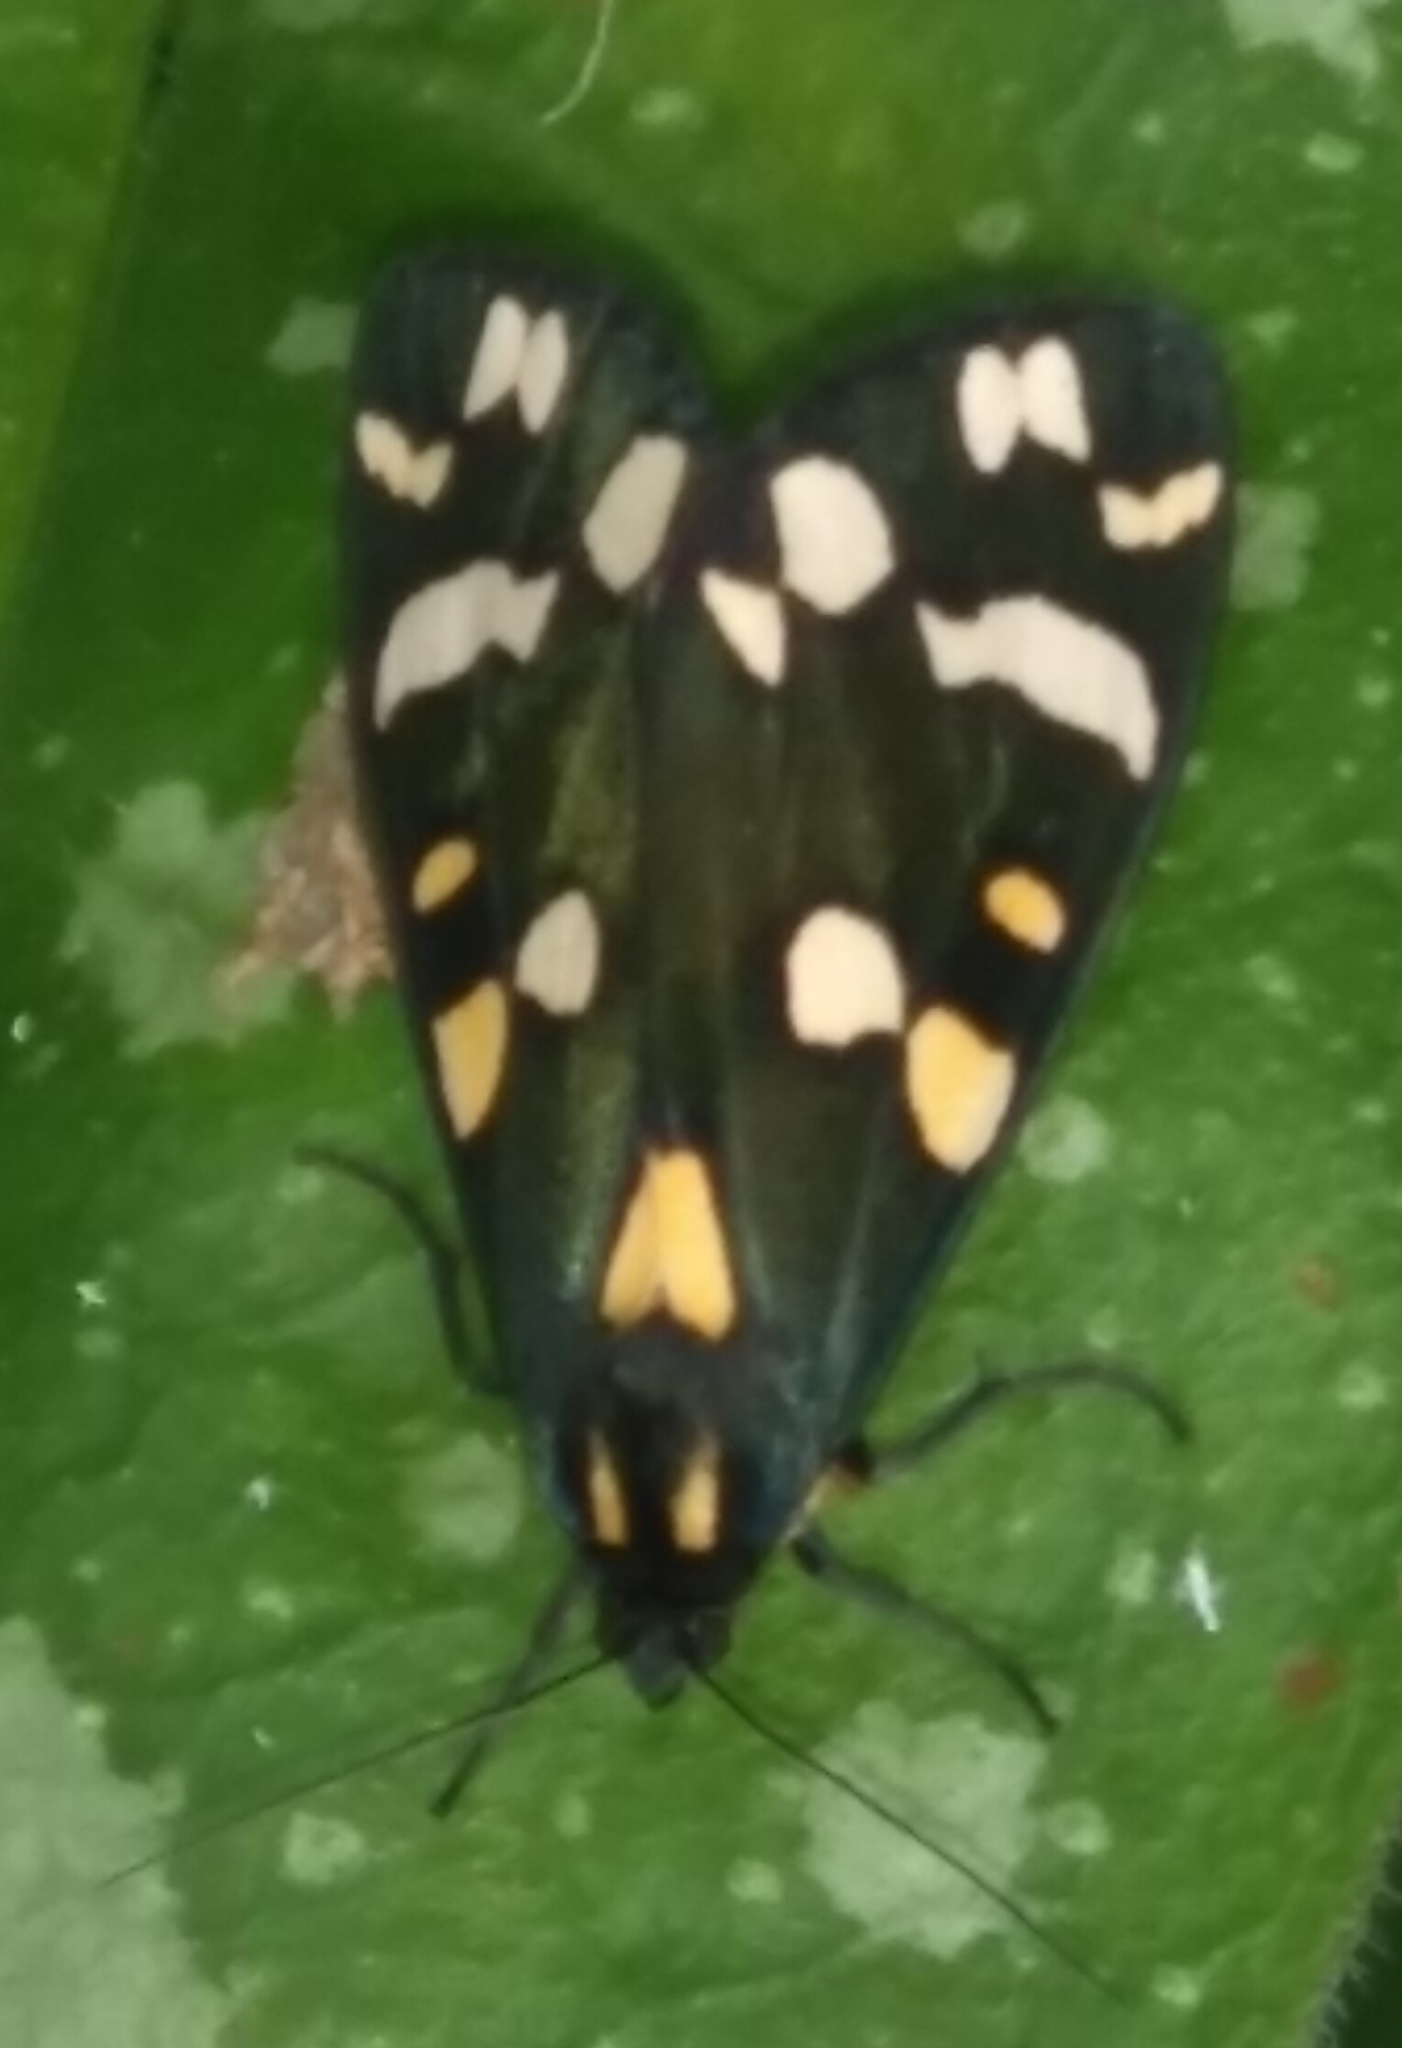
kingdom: Animalia
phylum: Arthropoda
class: Insecta
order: Lepidoptera
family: Erebidae
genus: Callimorpha
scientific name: Callimorpha dominula
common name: Scarlet tiger
